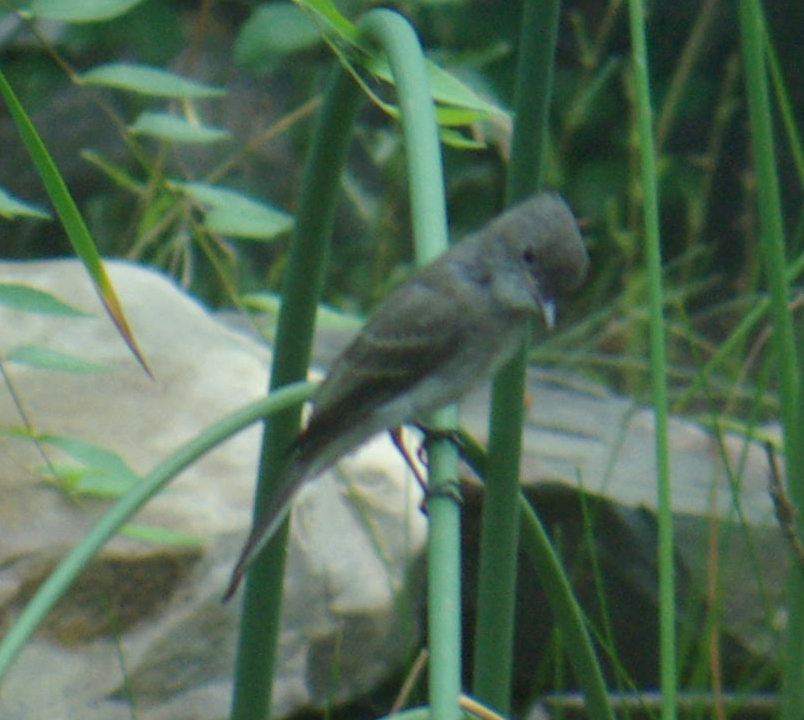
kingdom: Animalia
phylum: Chordata
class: Aves
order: Passeriformes
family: Tyrannidae
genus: Sayornis
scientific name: Sayornis phoebe
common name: Eastern phoebe
